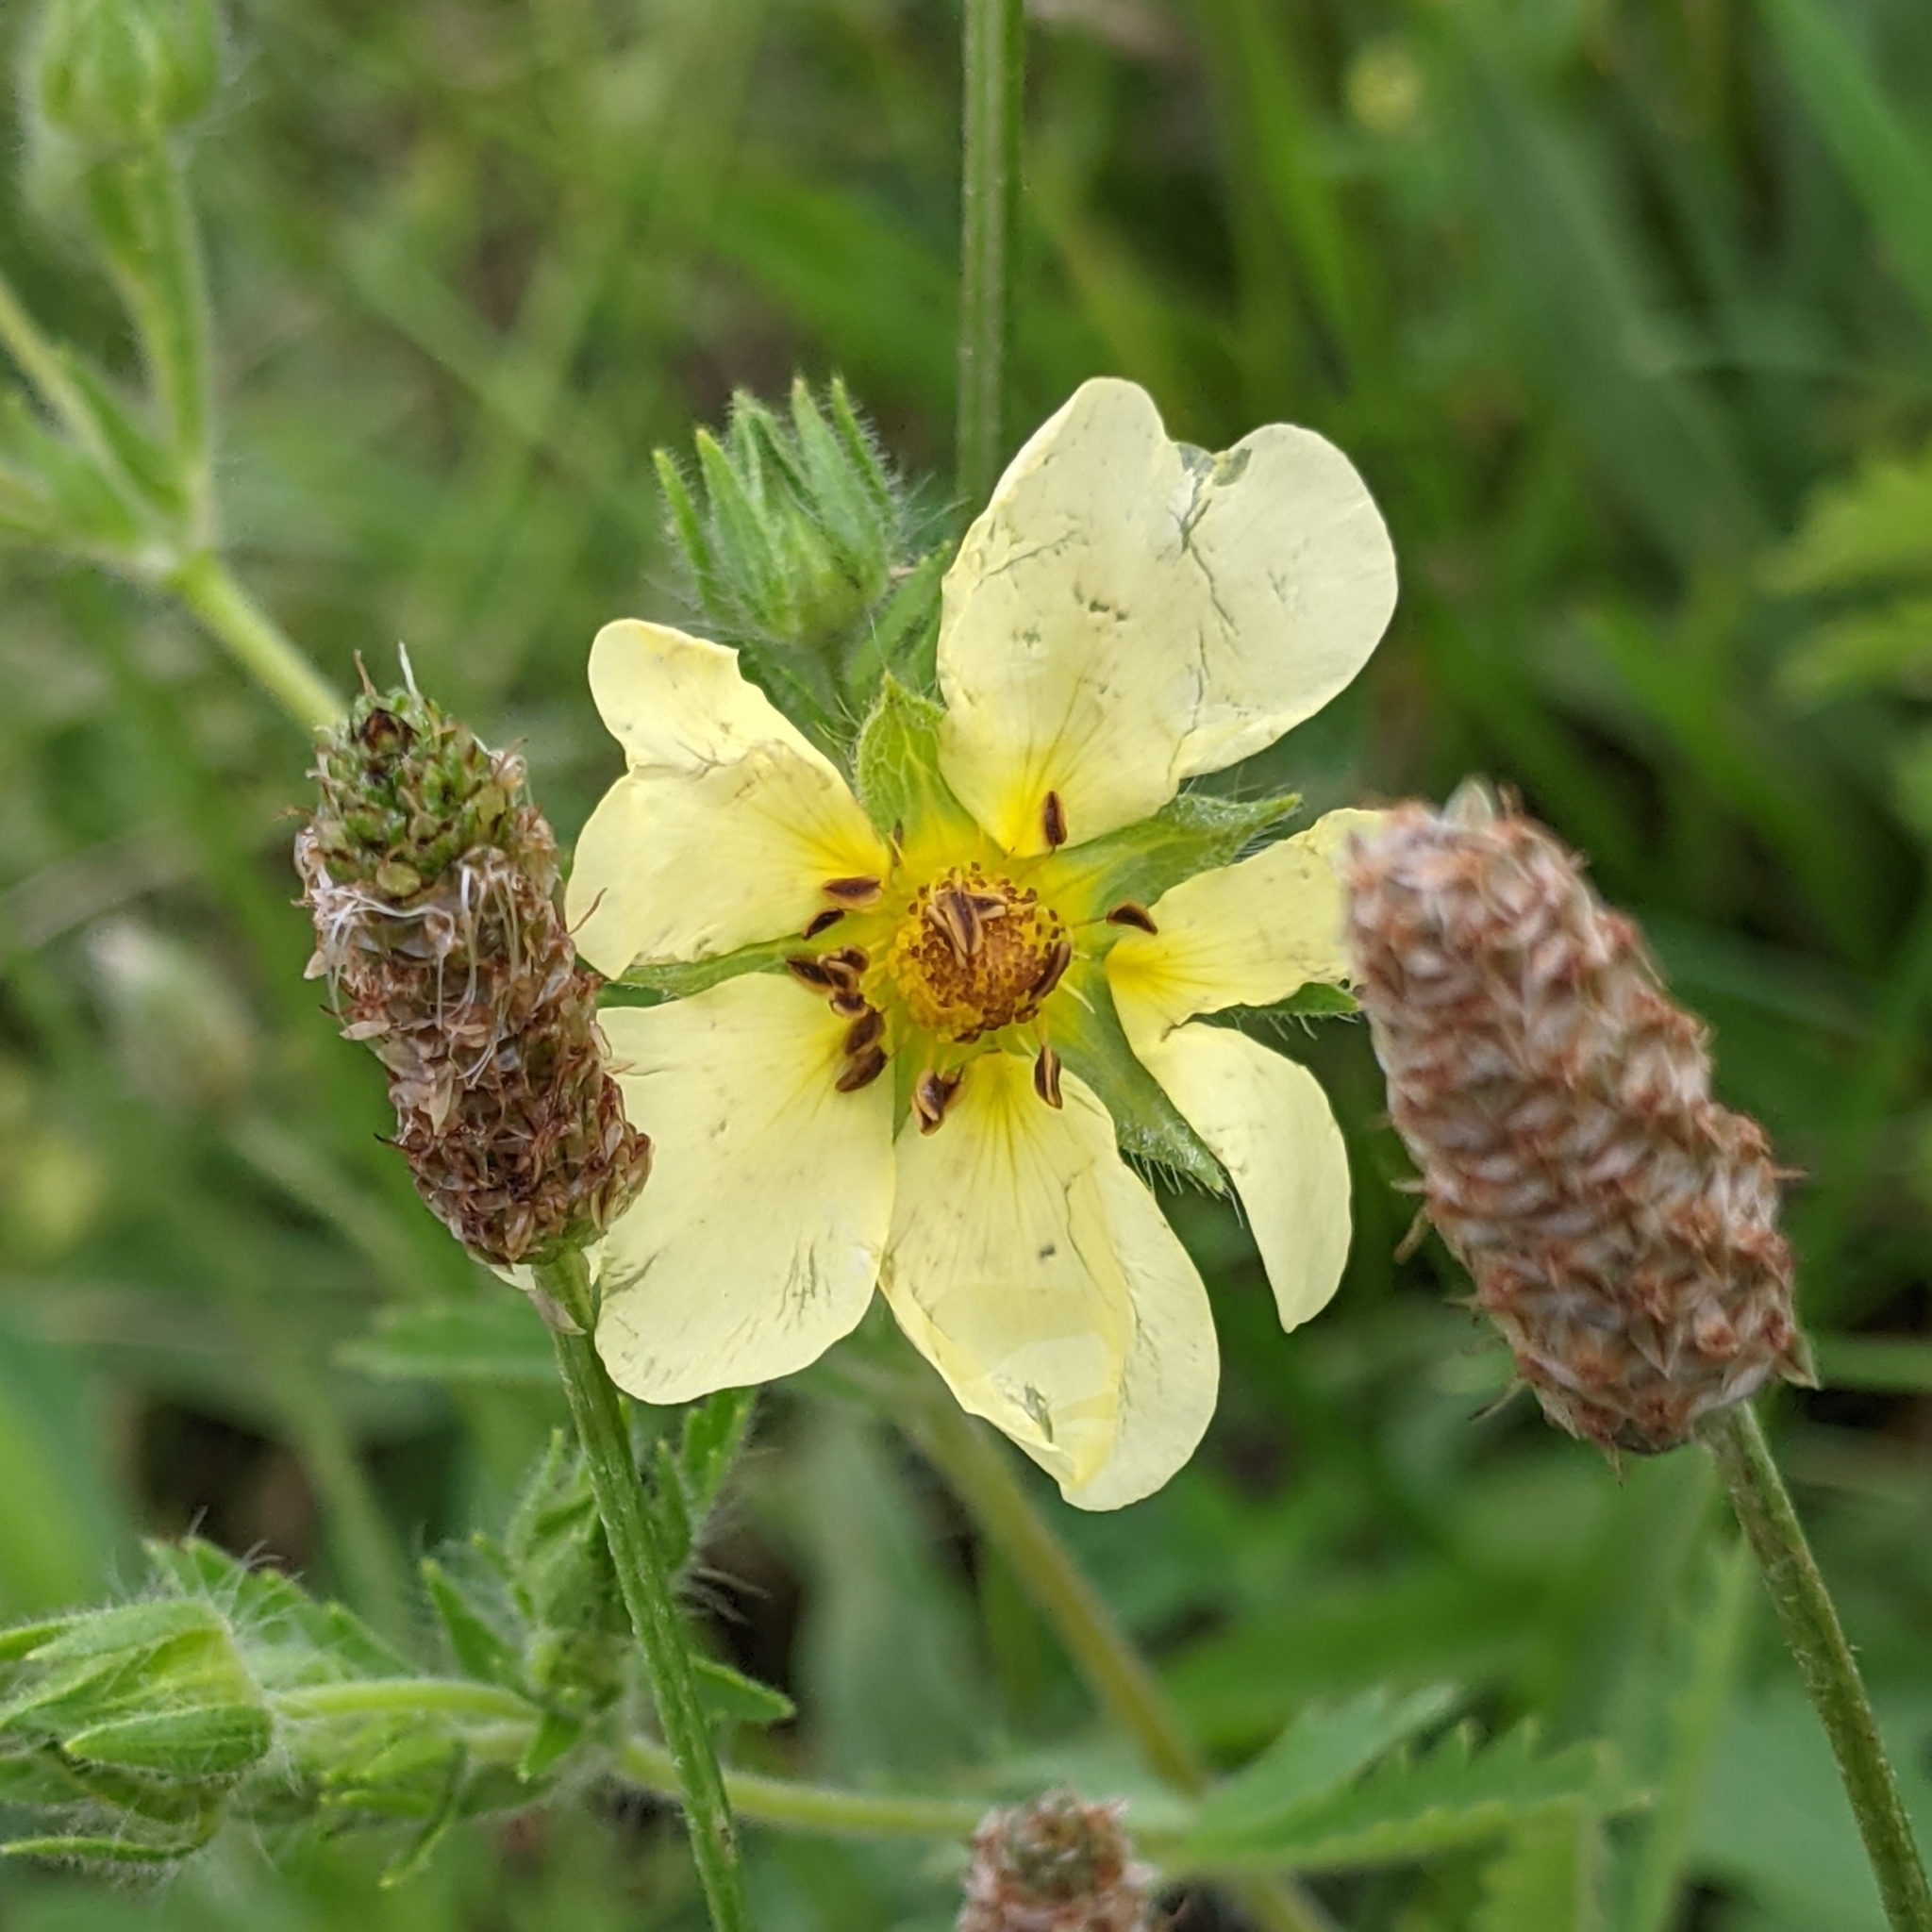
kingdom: Plantae
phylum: Tracheophyta
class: Magnoliopsida
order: Rosales
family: Rosaceae
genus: Potentilla
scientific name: Potentilla recta
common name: Sulphur cinquefoil
